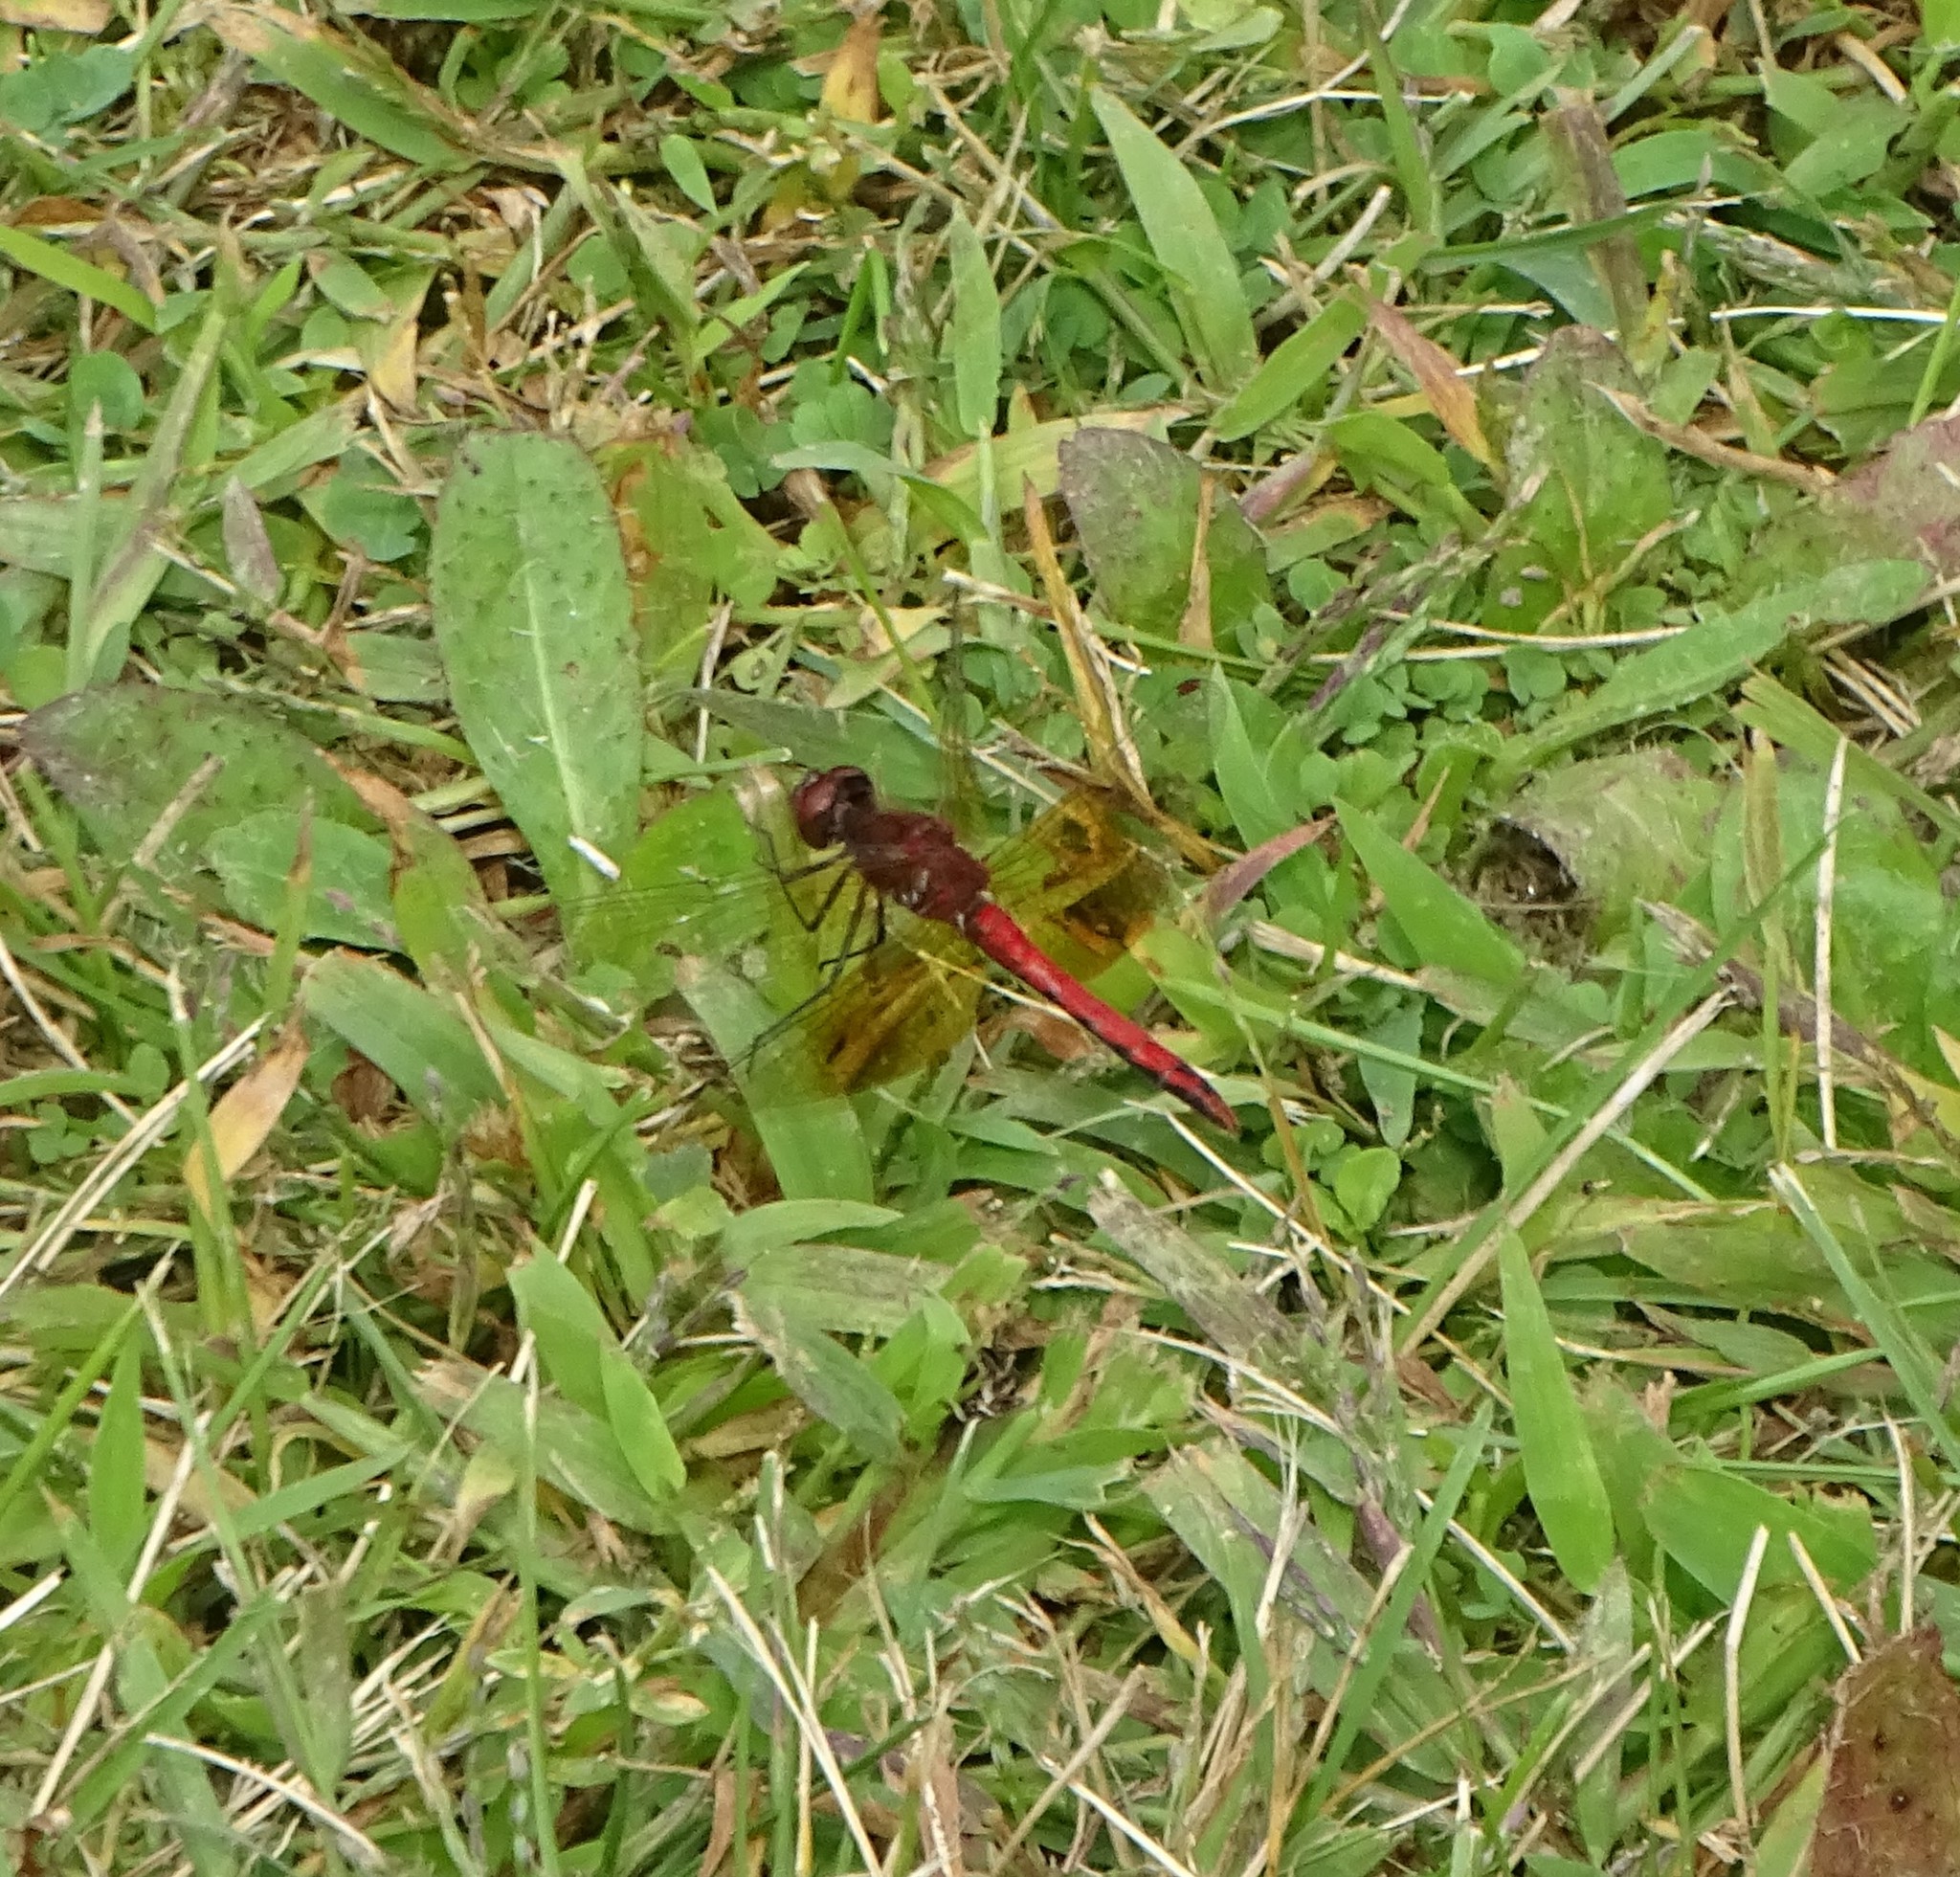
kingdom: Animalia
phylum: Arthropoda
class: Insecta
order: Odonata
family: Libellulidae
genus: Sympetrum
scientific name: Sympetrum semicinctum
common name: Band-winged meadowhawk
